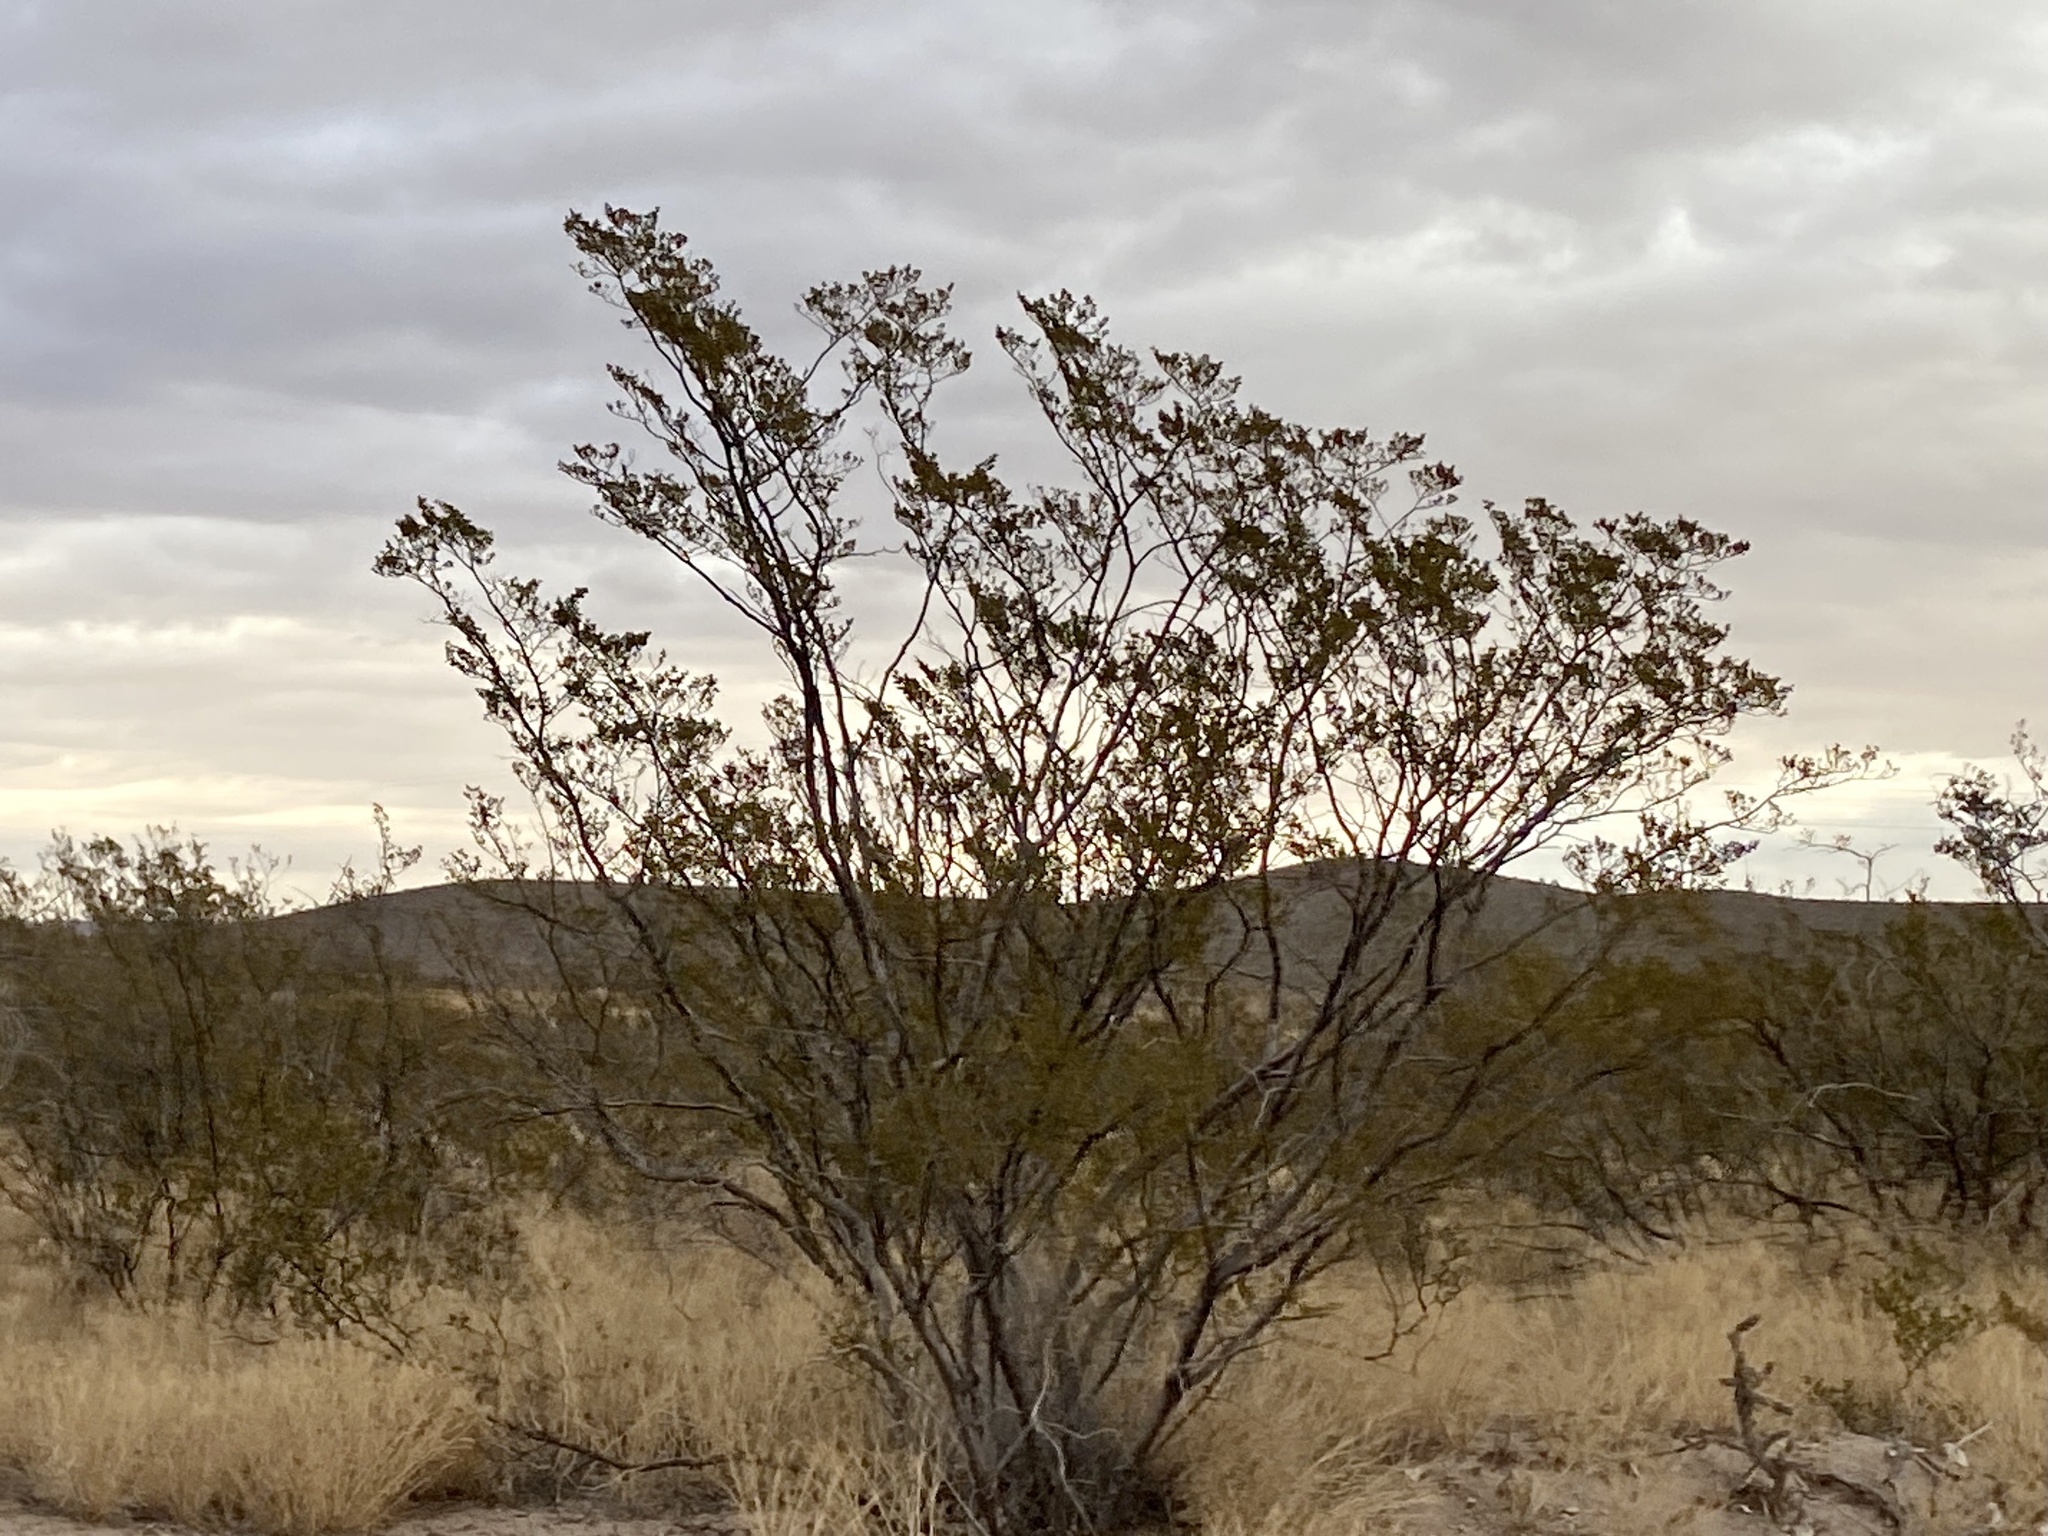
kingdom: Plantae
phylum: Tracheophyta
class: Magnoliopsida
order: Zygophyllales
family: Zygophyllaceae
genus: Larrea
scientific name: Larrea tridentata
